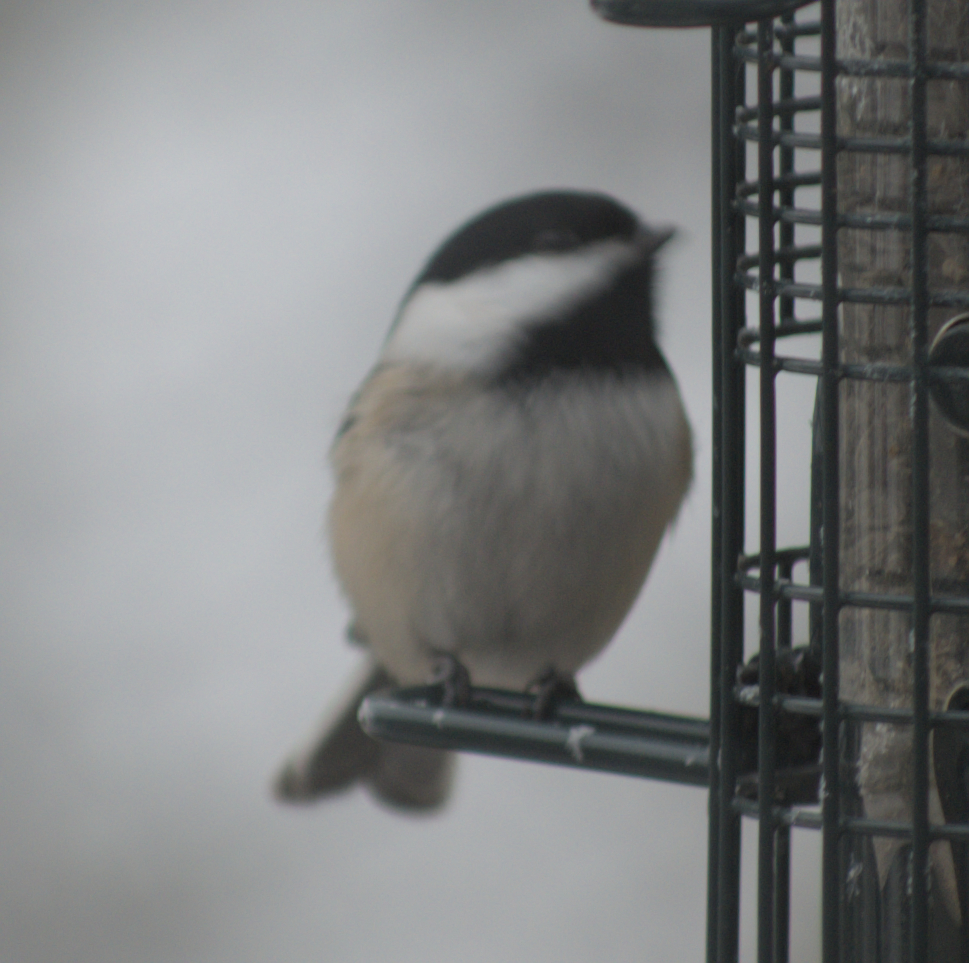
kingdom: Animalia
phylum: Chordata
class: Aves
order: Passeriformes
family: Paridae
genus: Poecile
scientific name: Poecile atricapillus
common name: Black-capped chickadee
